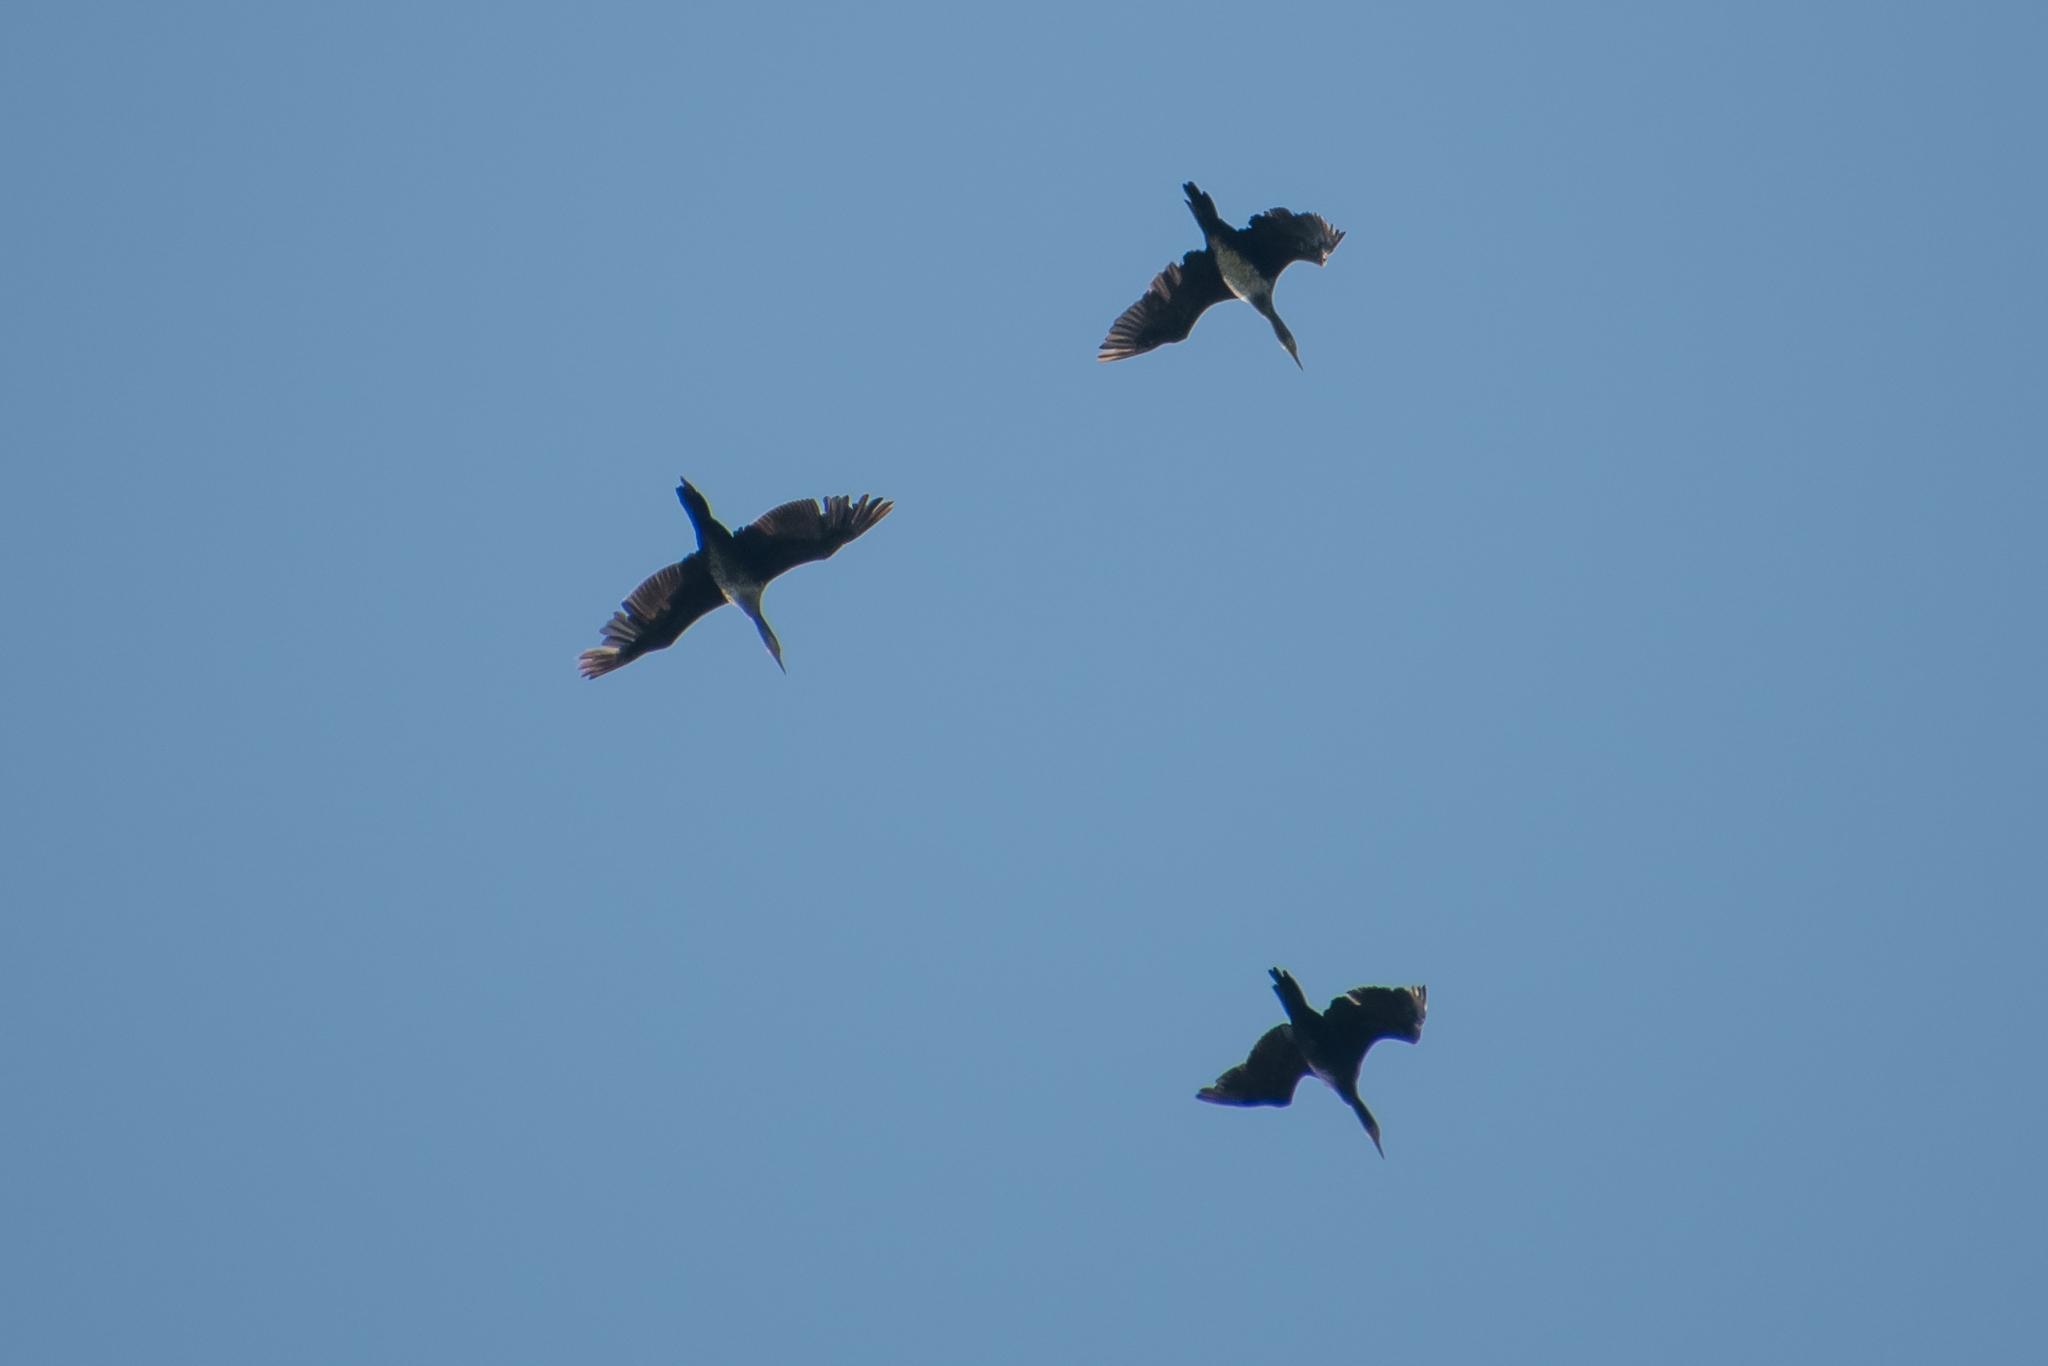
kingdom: Animalia
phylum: Chordata
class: Aves
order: Suliformes
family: Phalacrocoracidae
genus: Phalacrocorax
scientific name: Phalacrocorax carbo
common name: Great cormorant
